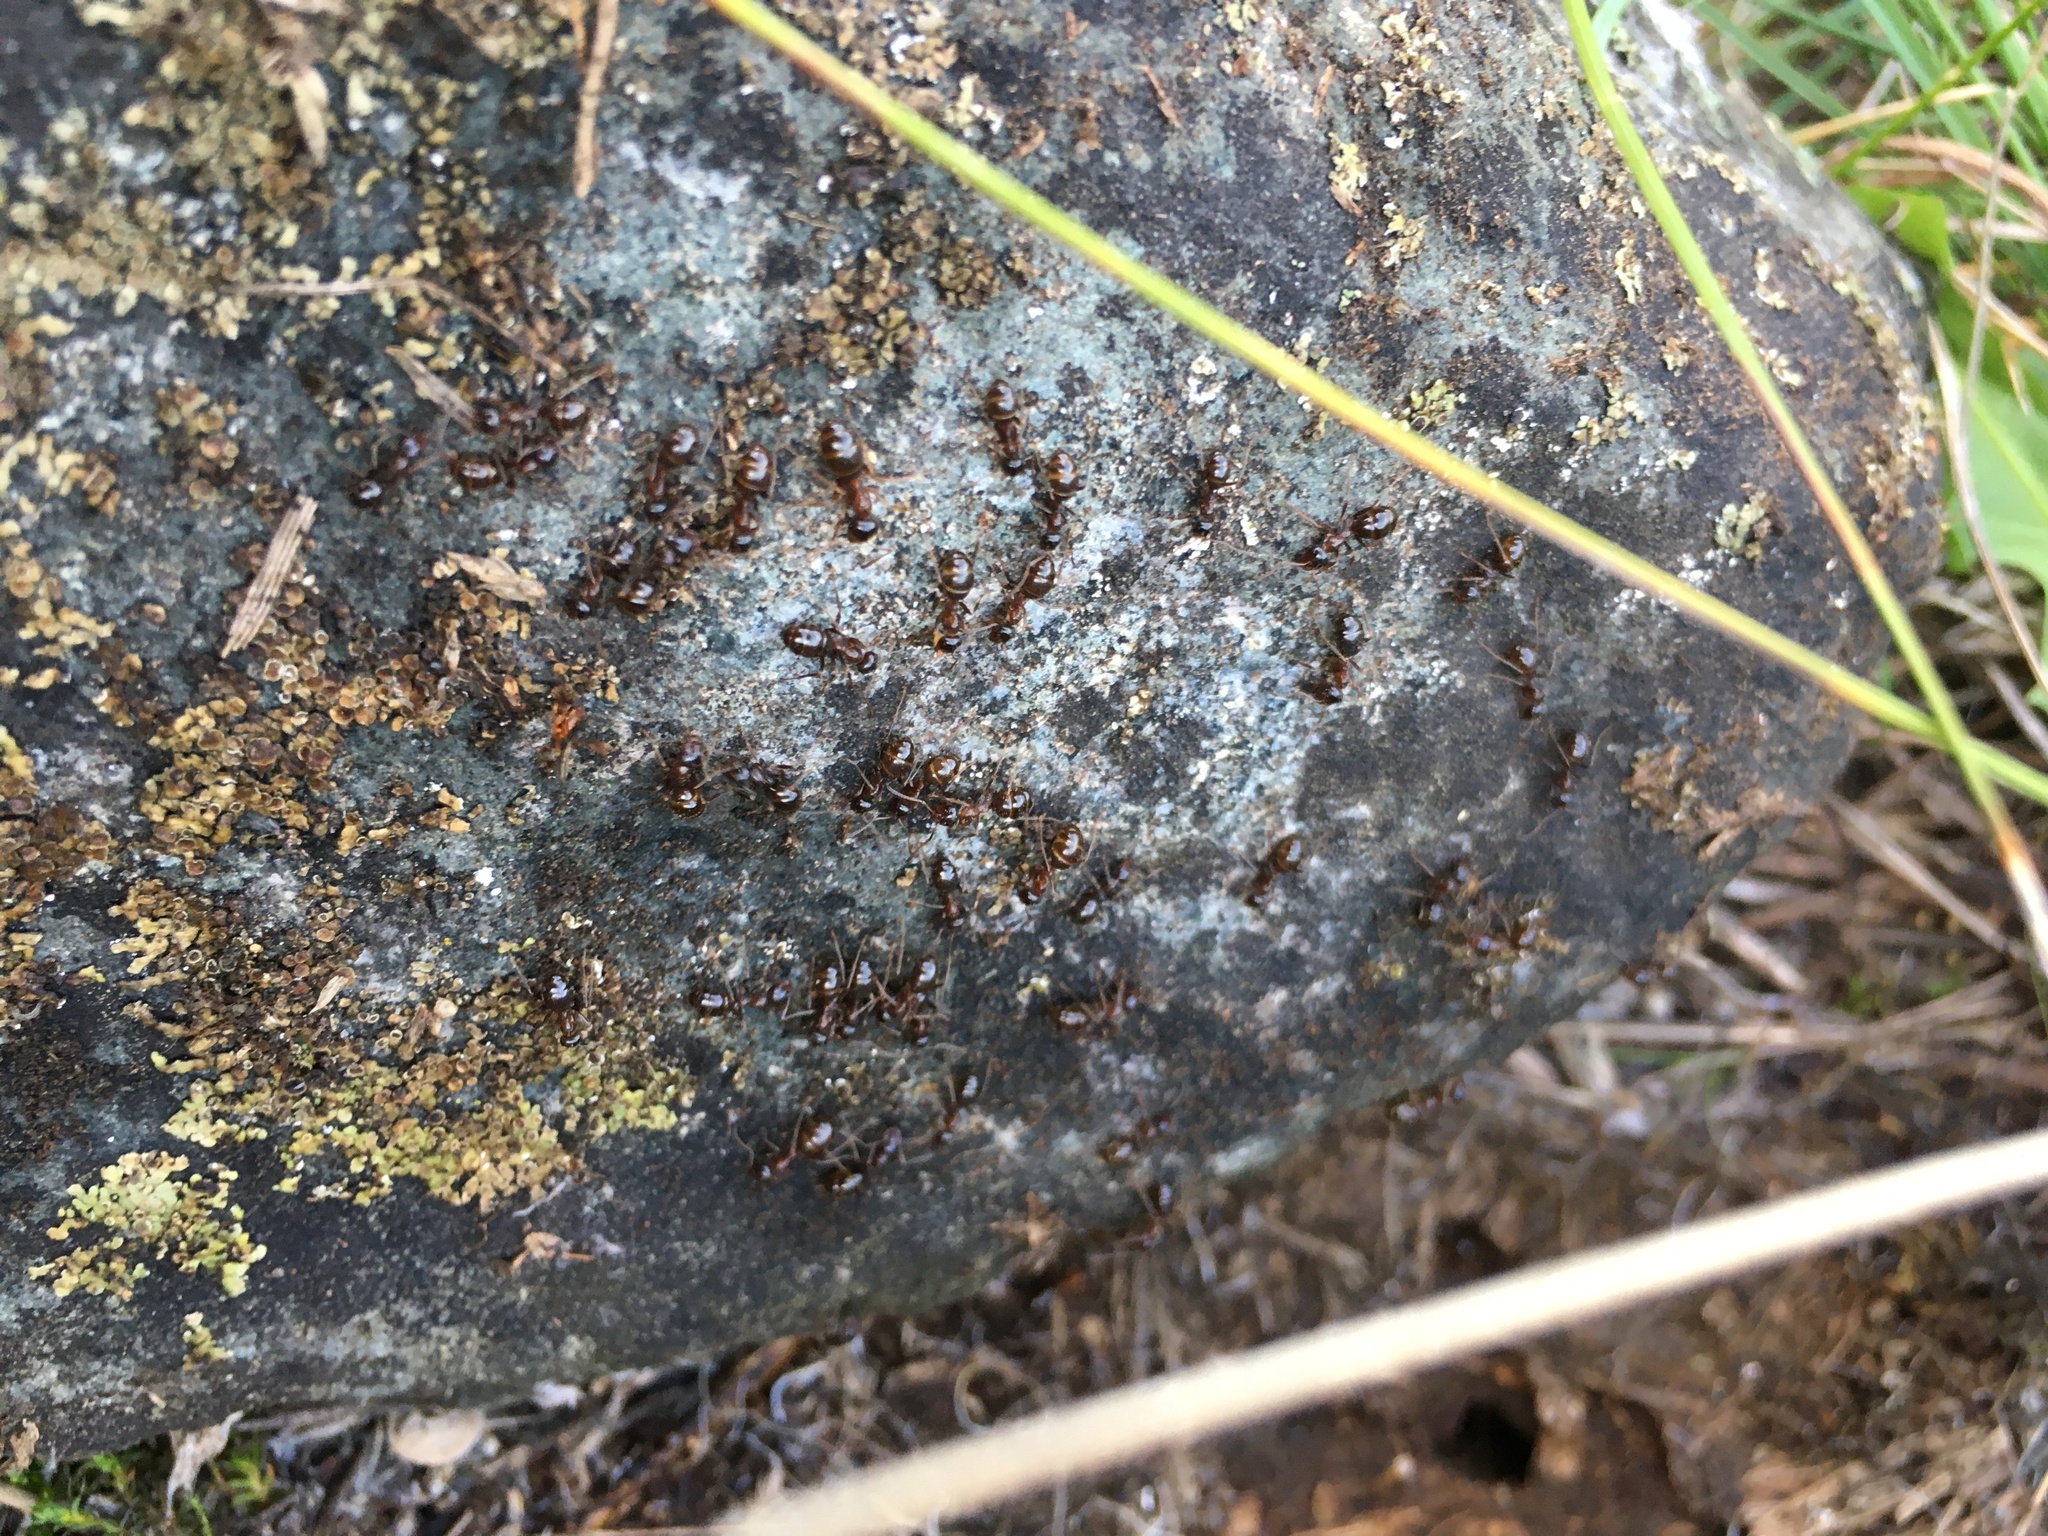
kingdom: Animalia
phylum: Arthropoda
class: Insecta
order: Hymenoptera
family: Formicidae
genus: Formica
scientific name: Formica subpolita
